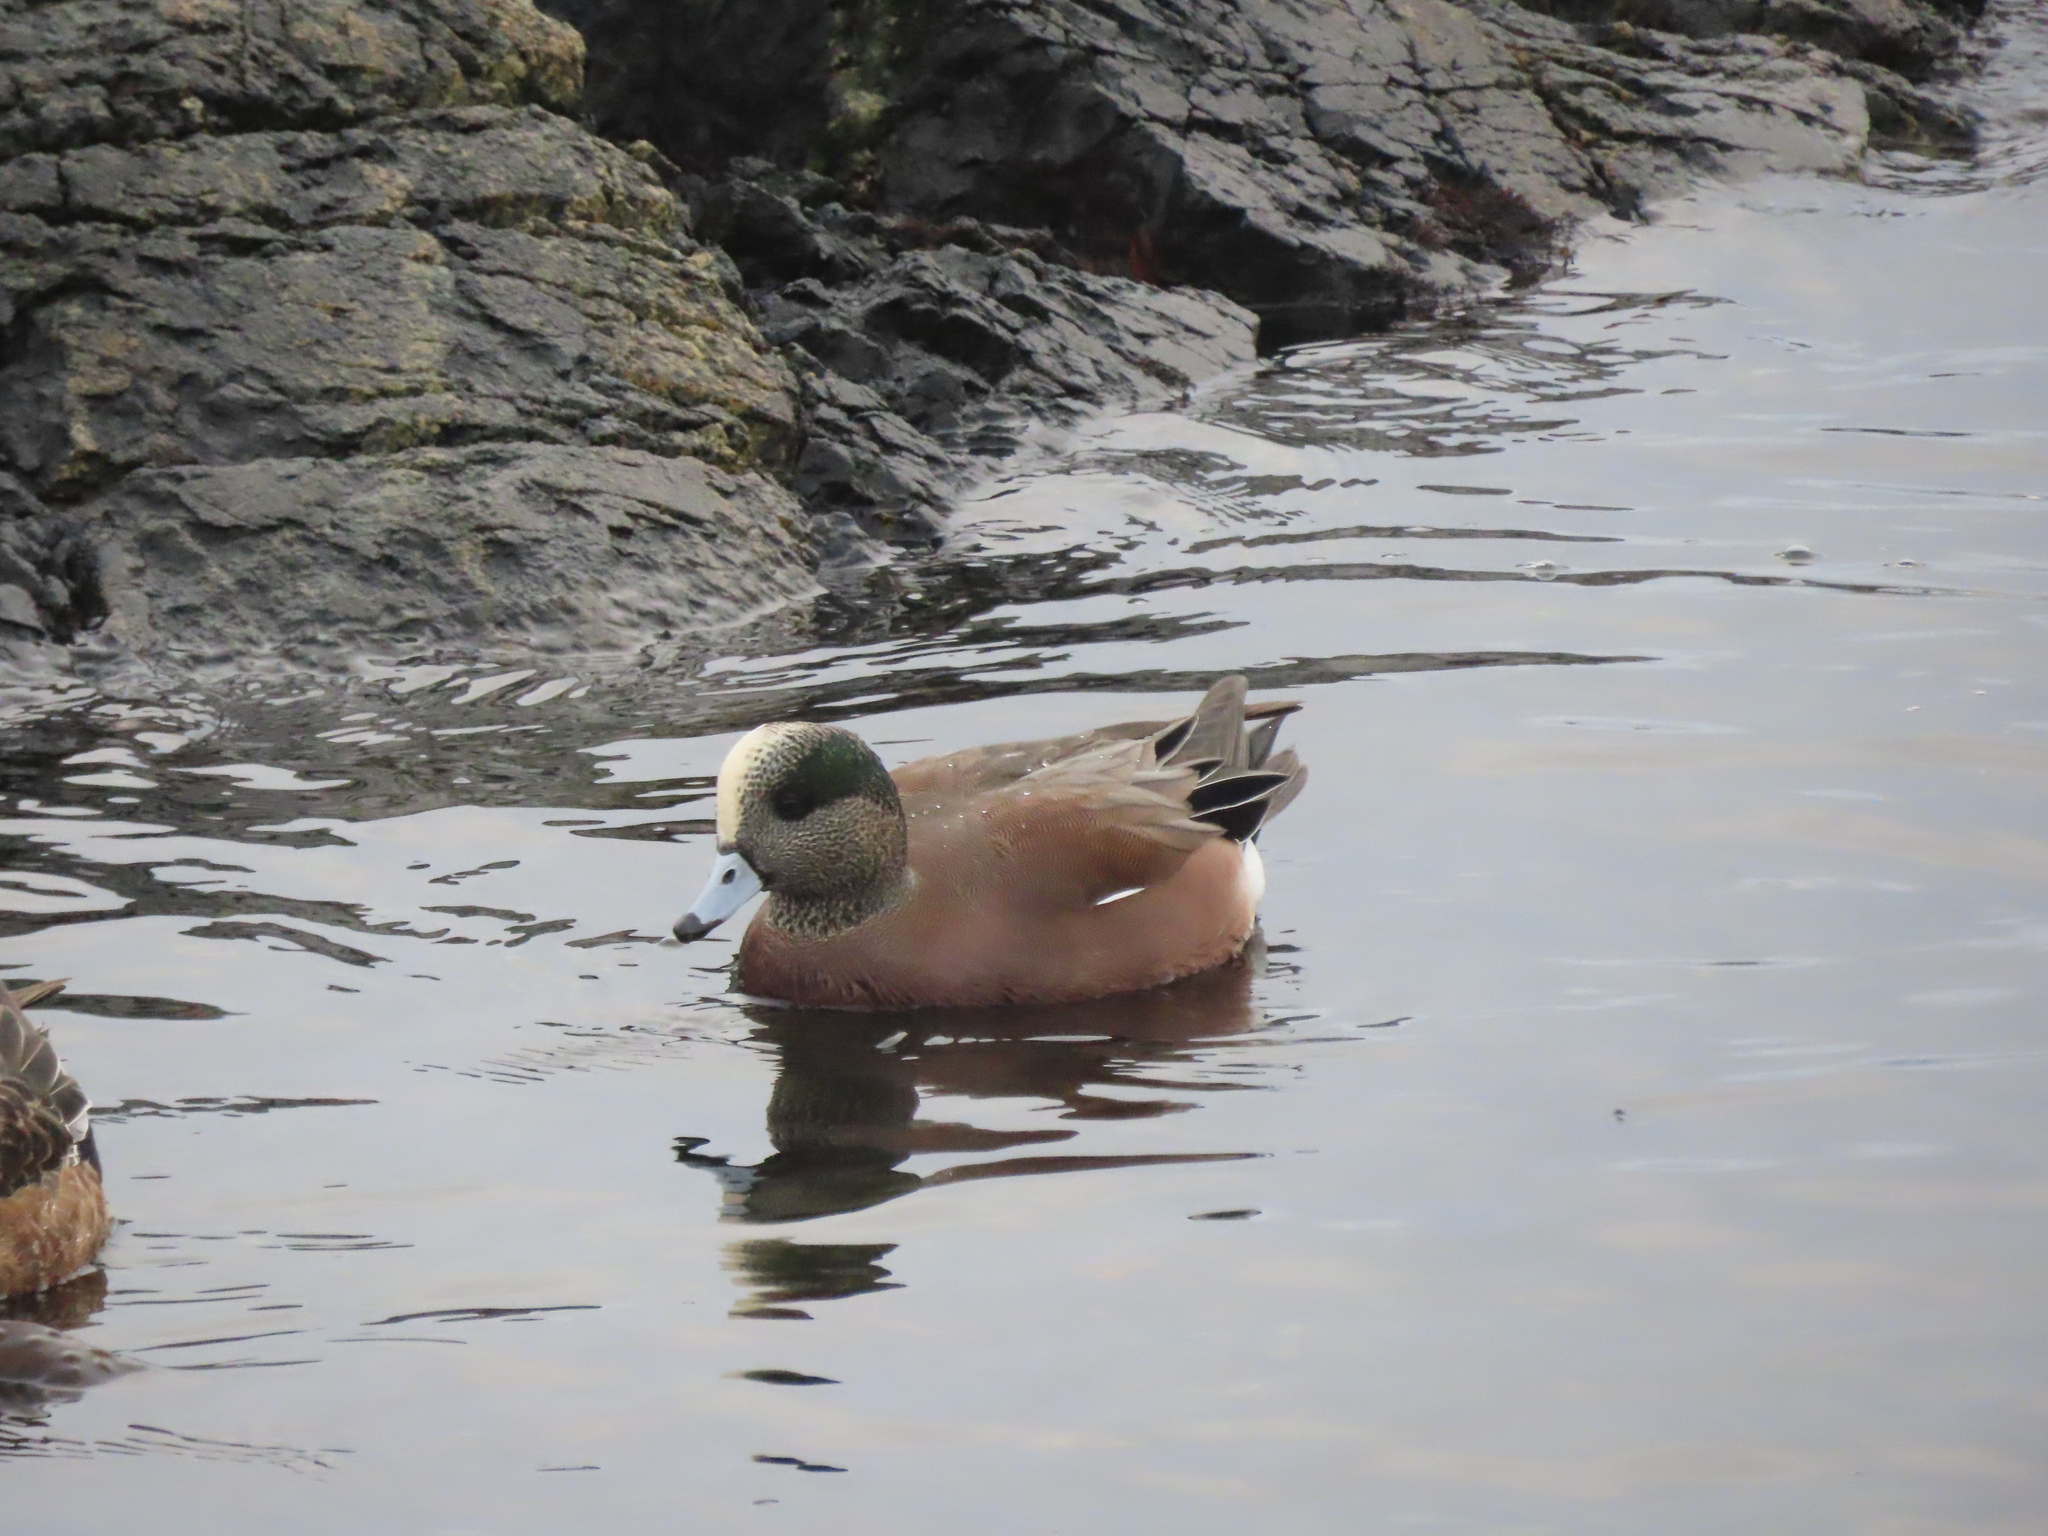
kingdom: Animalia
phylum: Chordata
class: Aves
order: Anseriformes
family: Anatidae
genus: Mareca
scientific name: Mareca americana
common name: American wigeon
